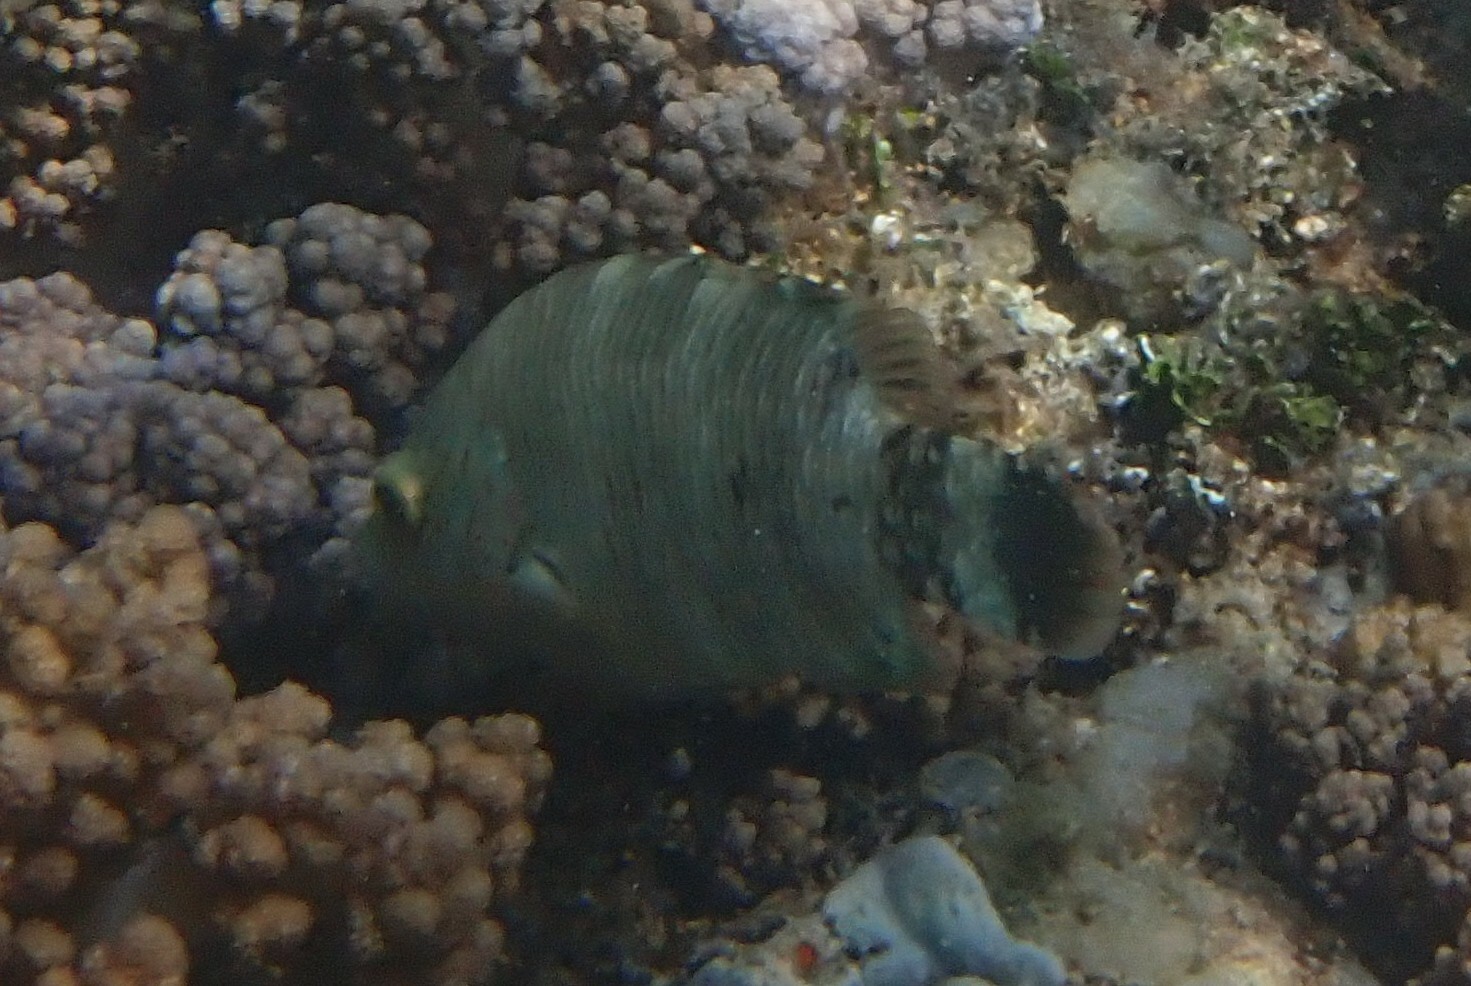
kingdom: Animalia
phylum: Chordata
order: Perciformes
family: Labridae
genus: Cheilinus
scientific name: Cheilinus trilobatus
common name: Tripletail maori wrasse
